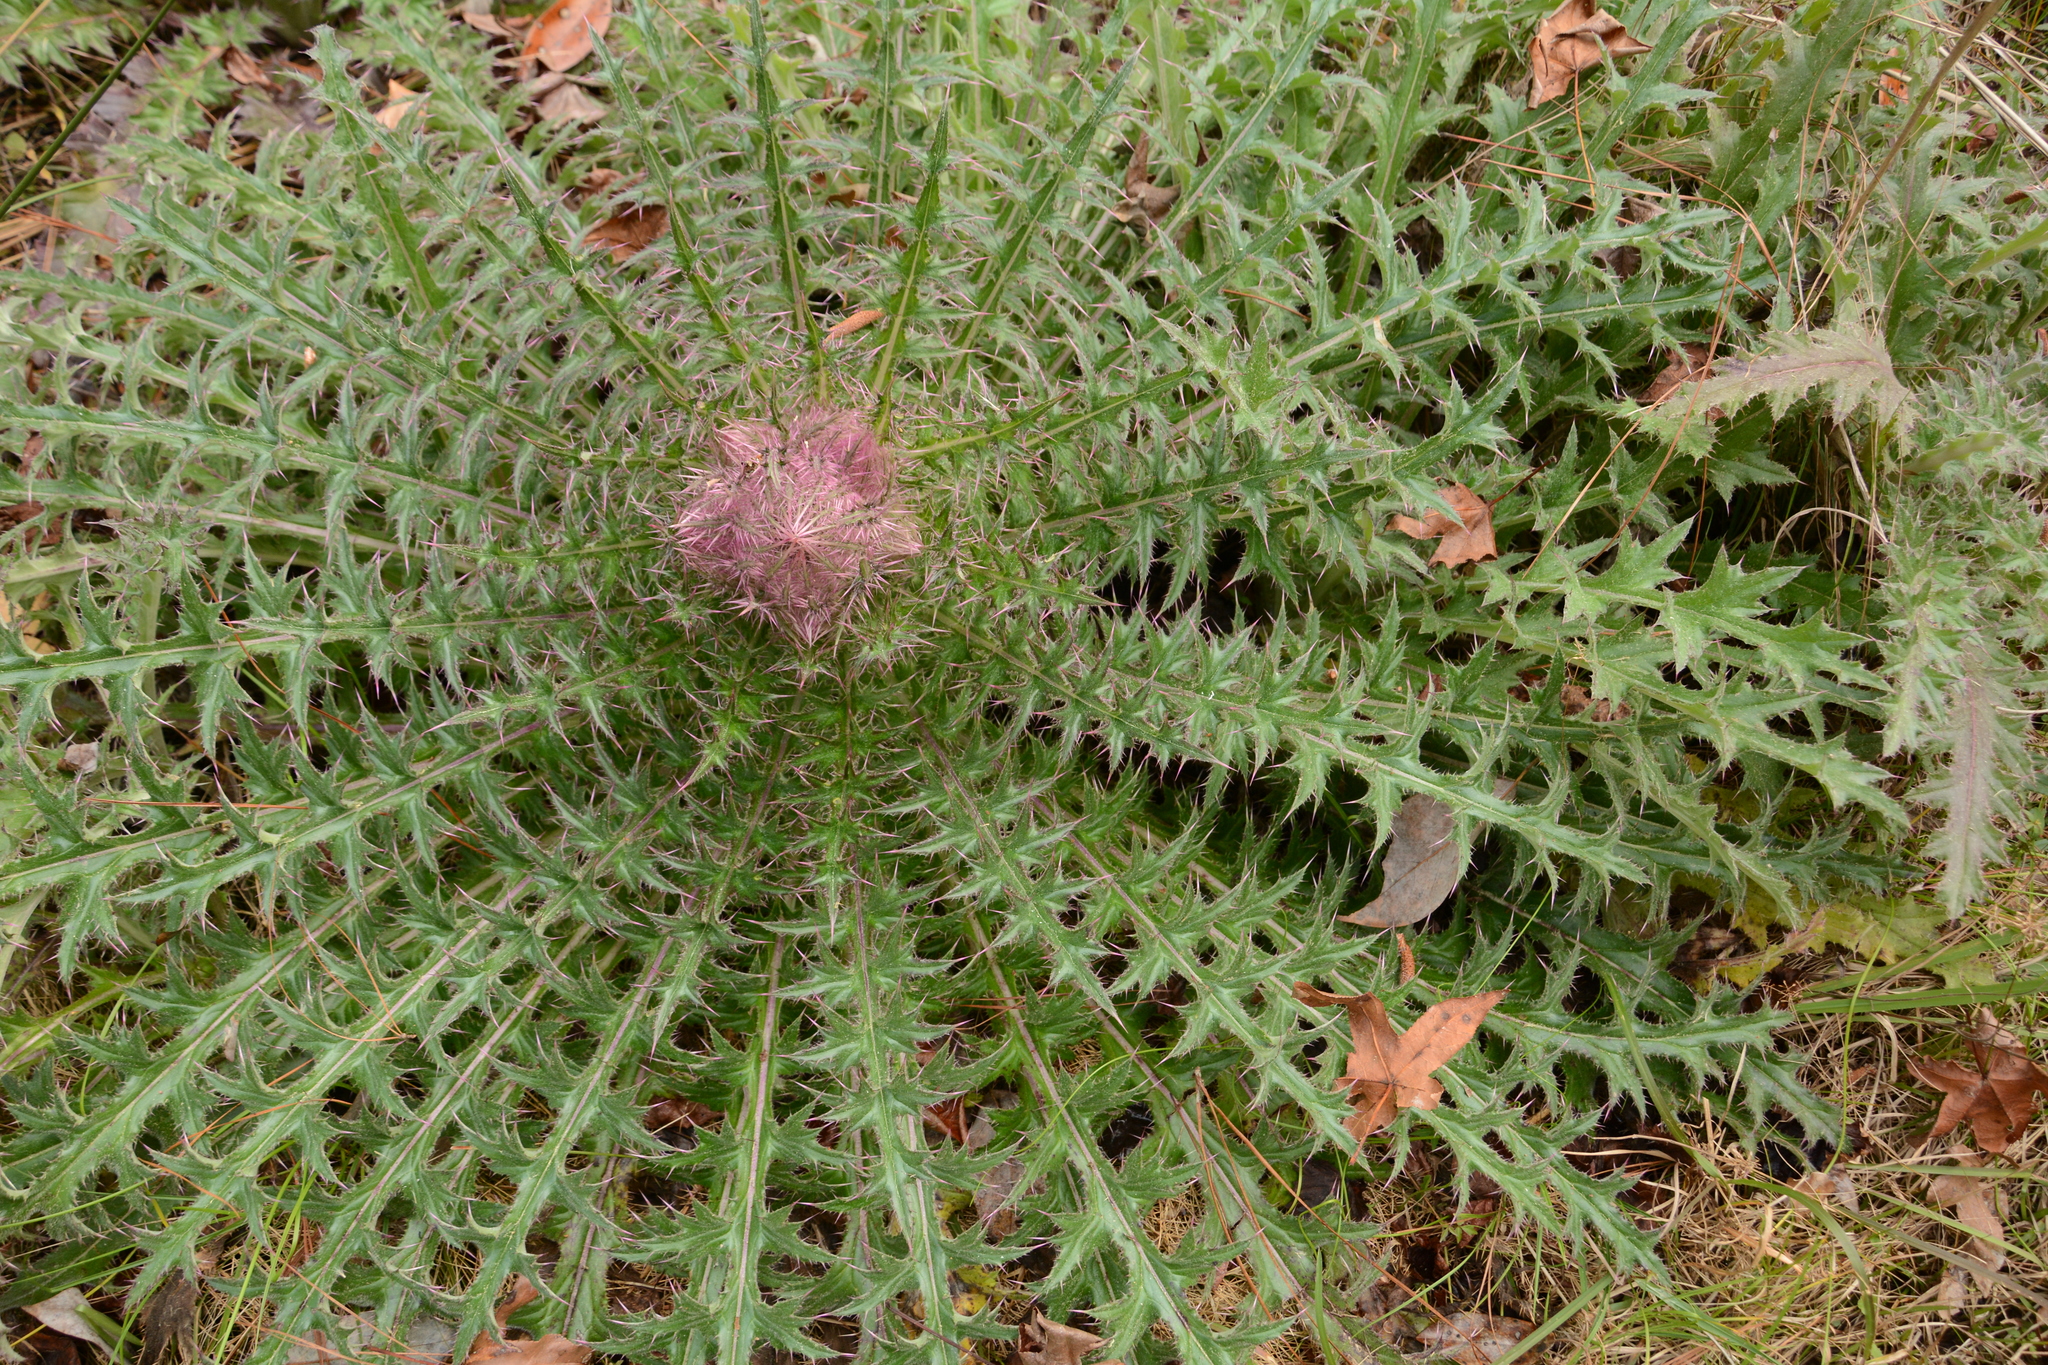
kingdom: Plantae
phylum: Tracheophyta
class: Magnoliopsida
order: Asterales
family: Asteraceae
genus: Cirsium
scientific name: Cirsium horridulum
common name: Bristly thistle
